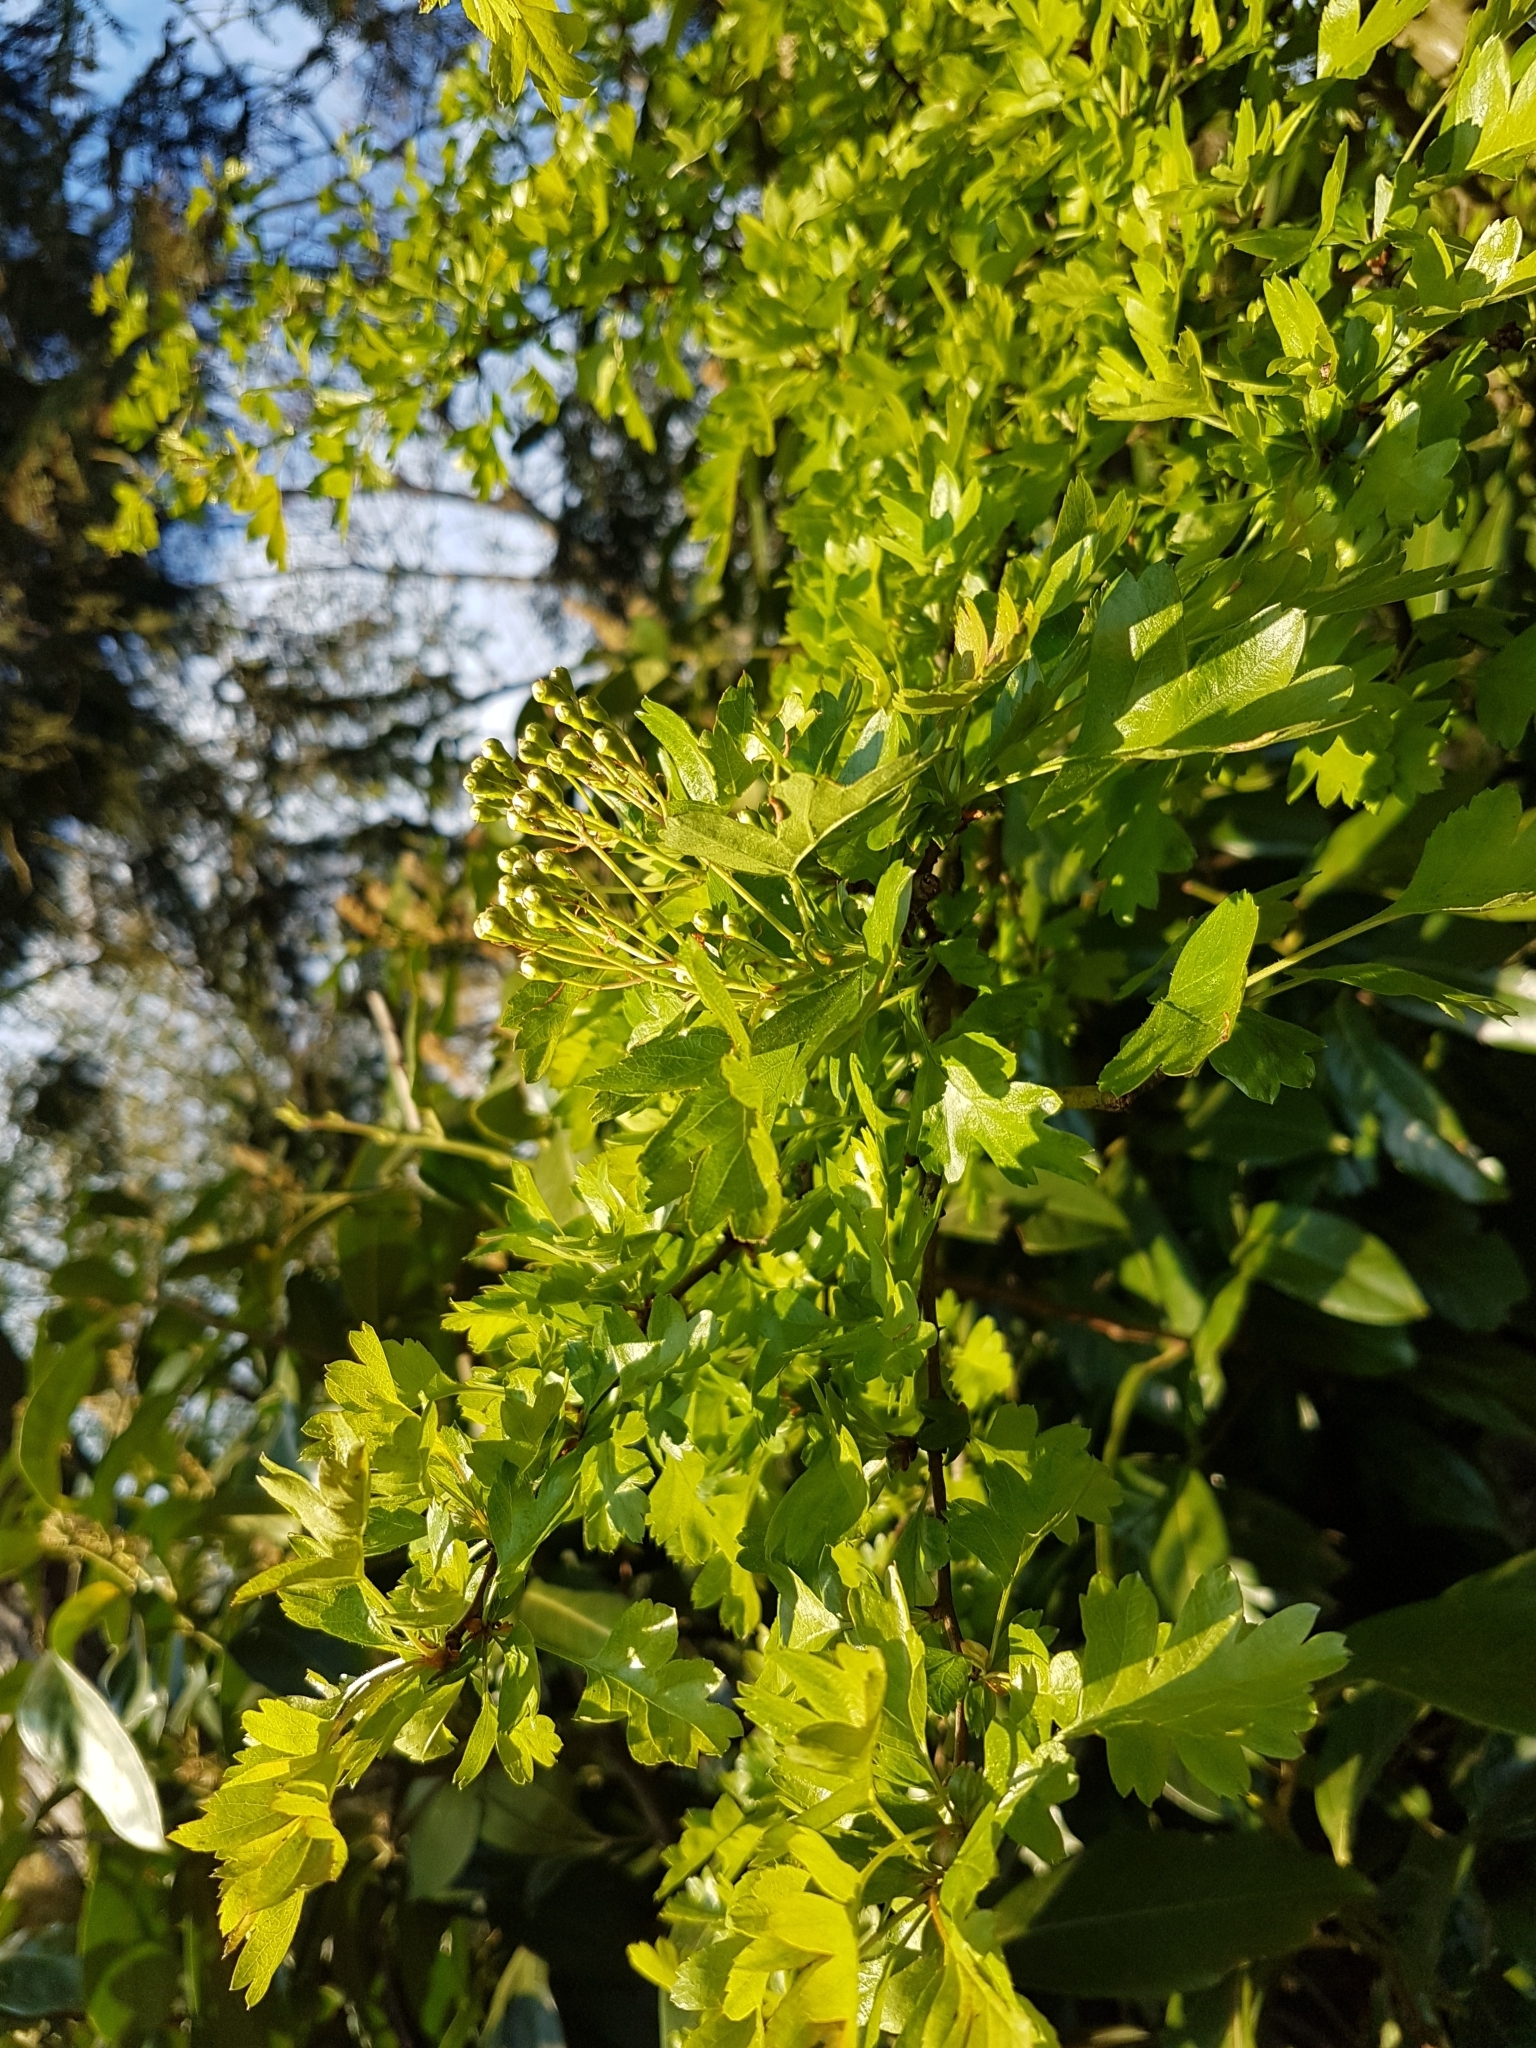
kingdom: Plantae
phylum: Tracheophyta
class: Magnoliopsida
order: Rosales
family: Rosaceae
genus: Crataegus
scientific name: Crataegus monogyna
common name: Hawthorn
